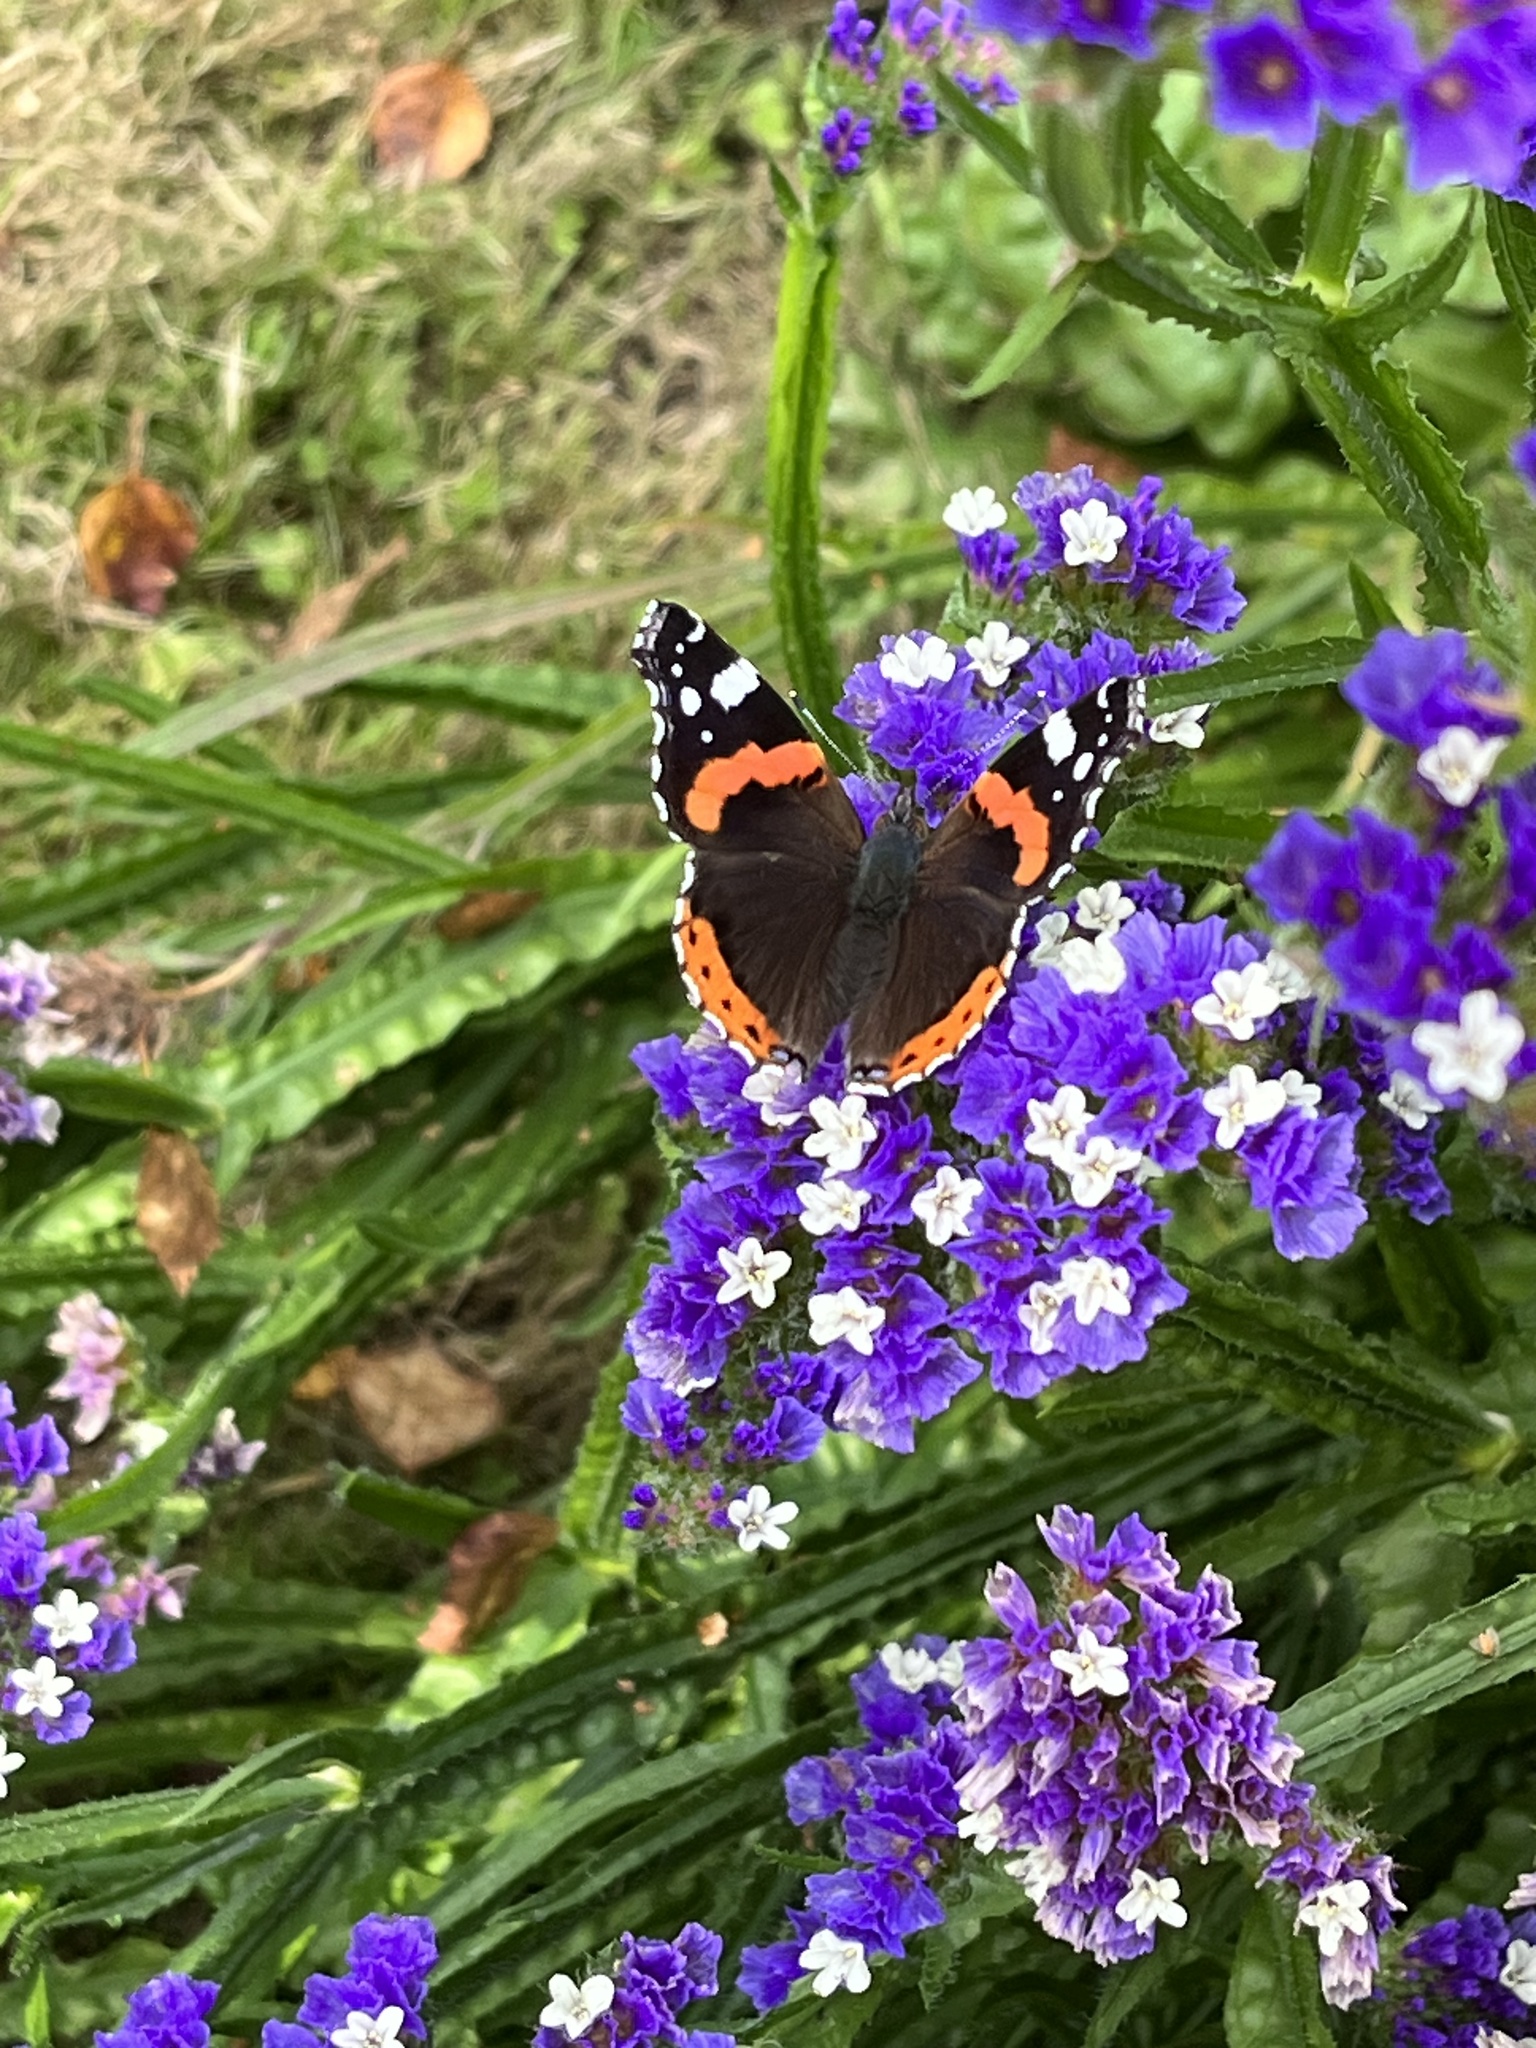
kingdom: Animalia
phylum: Arthropoda
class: Insecta
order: Lepidoptera
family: Nymphalidae
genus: Vanessa
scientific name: Vanessa atalanta
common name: Red admiral
